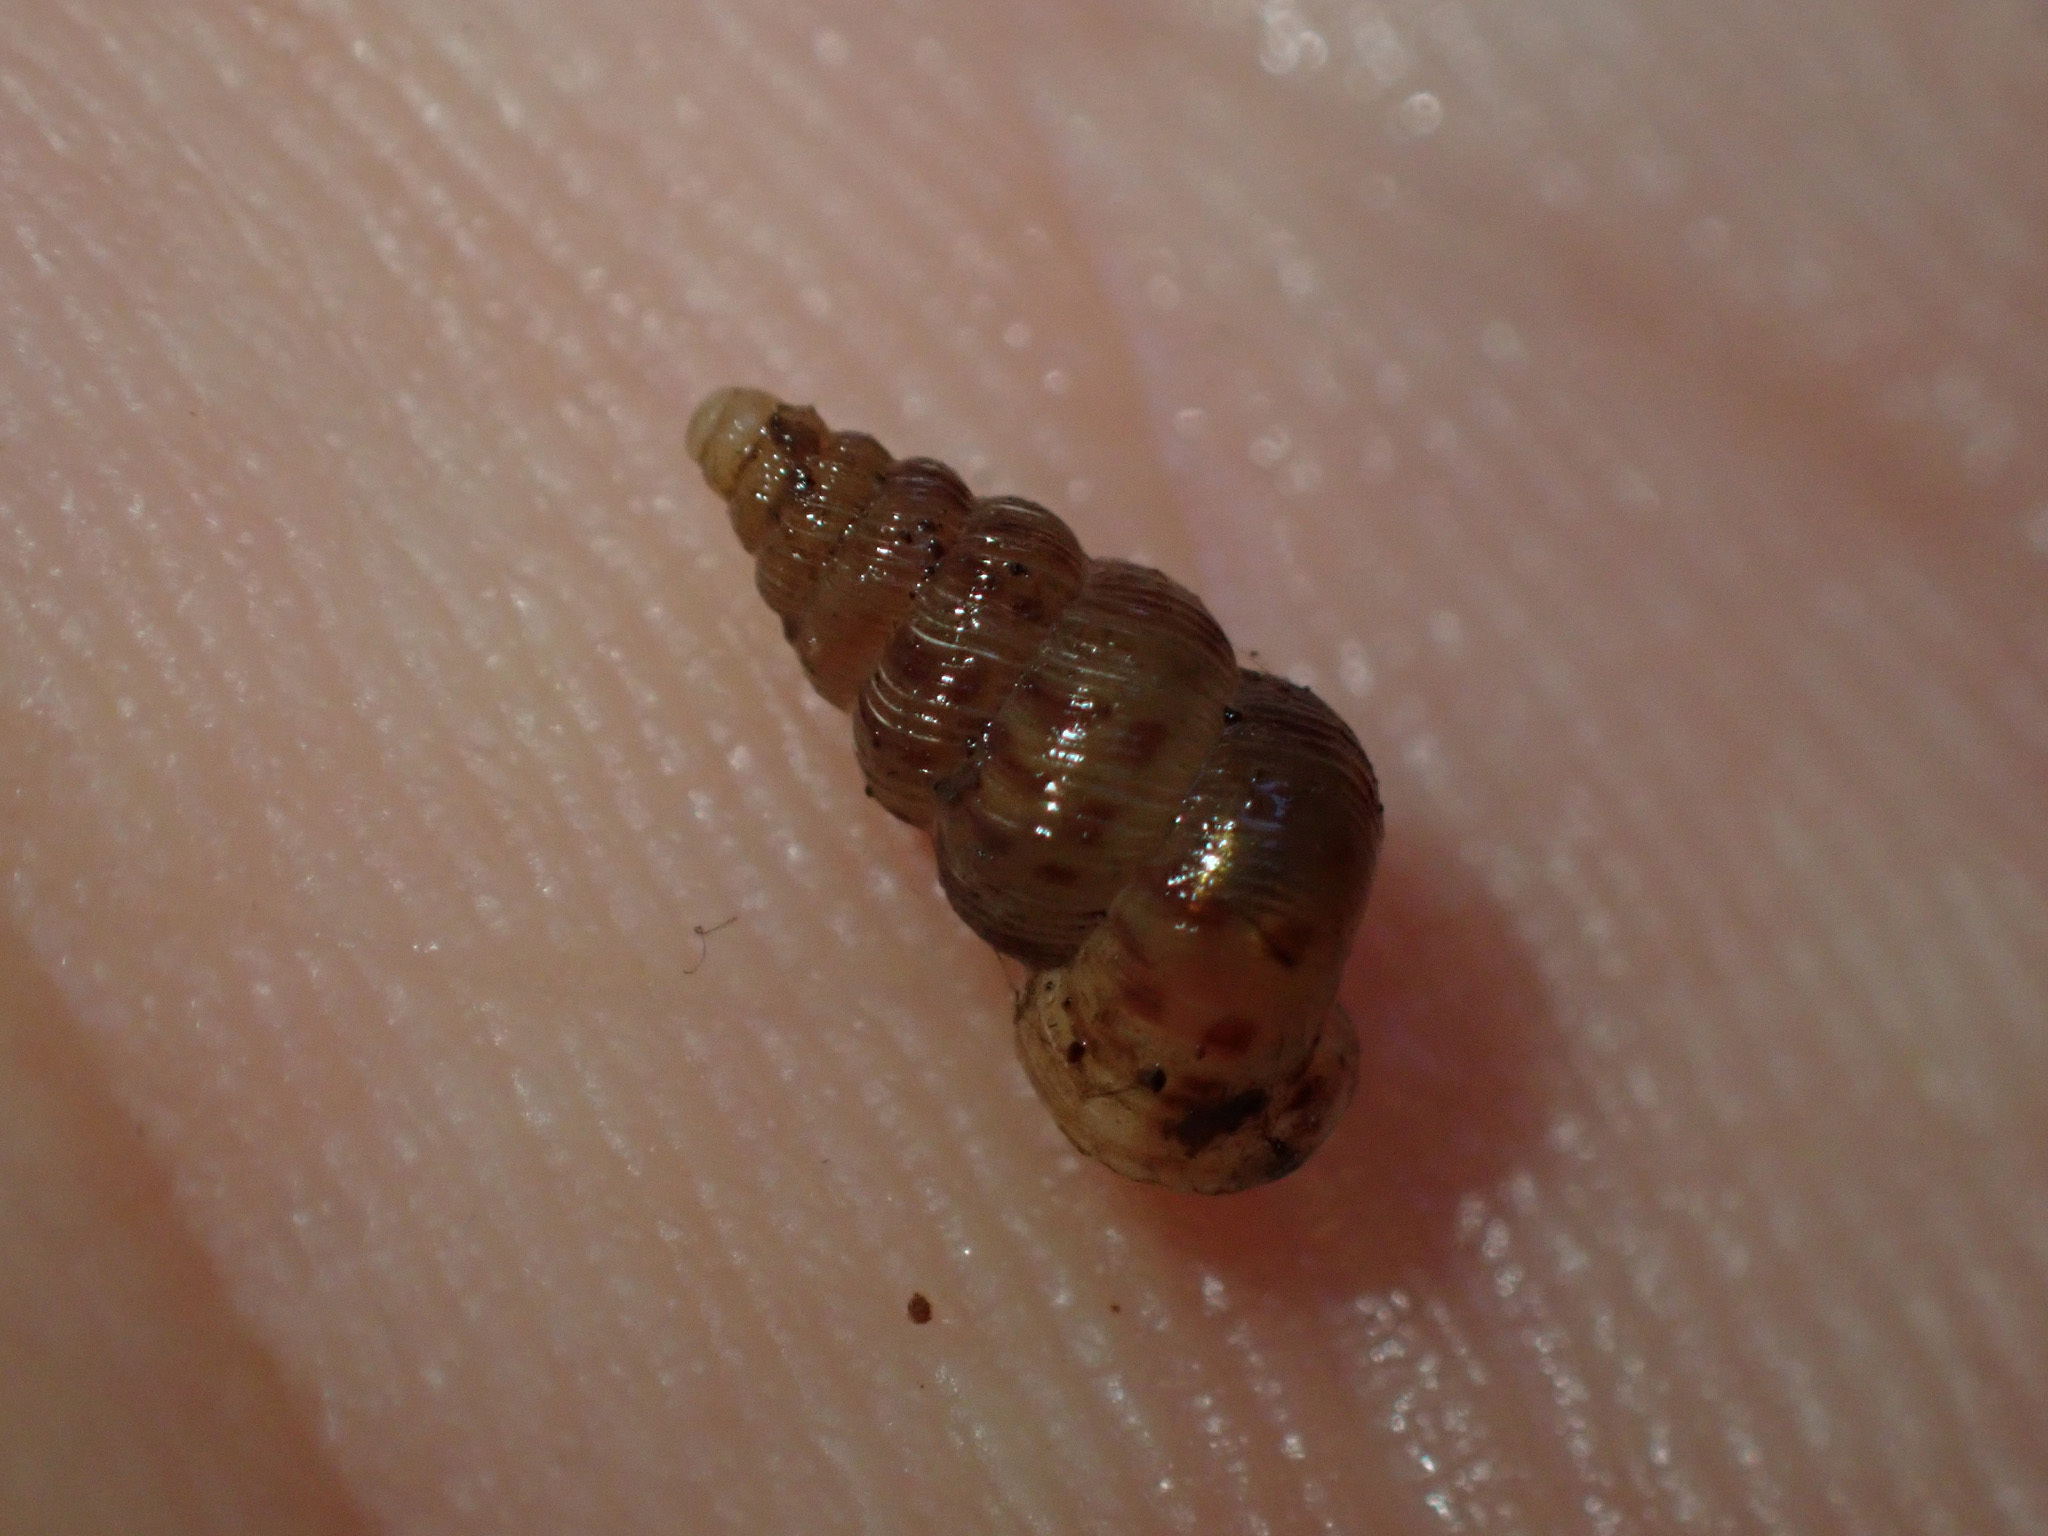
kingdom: Animalia
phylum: Mollusca
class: Gastropoda
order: Architaenioglossa
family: Cochlostomatidae
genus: Cochlostoma
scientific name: Cochlostoma septemspirale
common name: Seven-whorl snail
